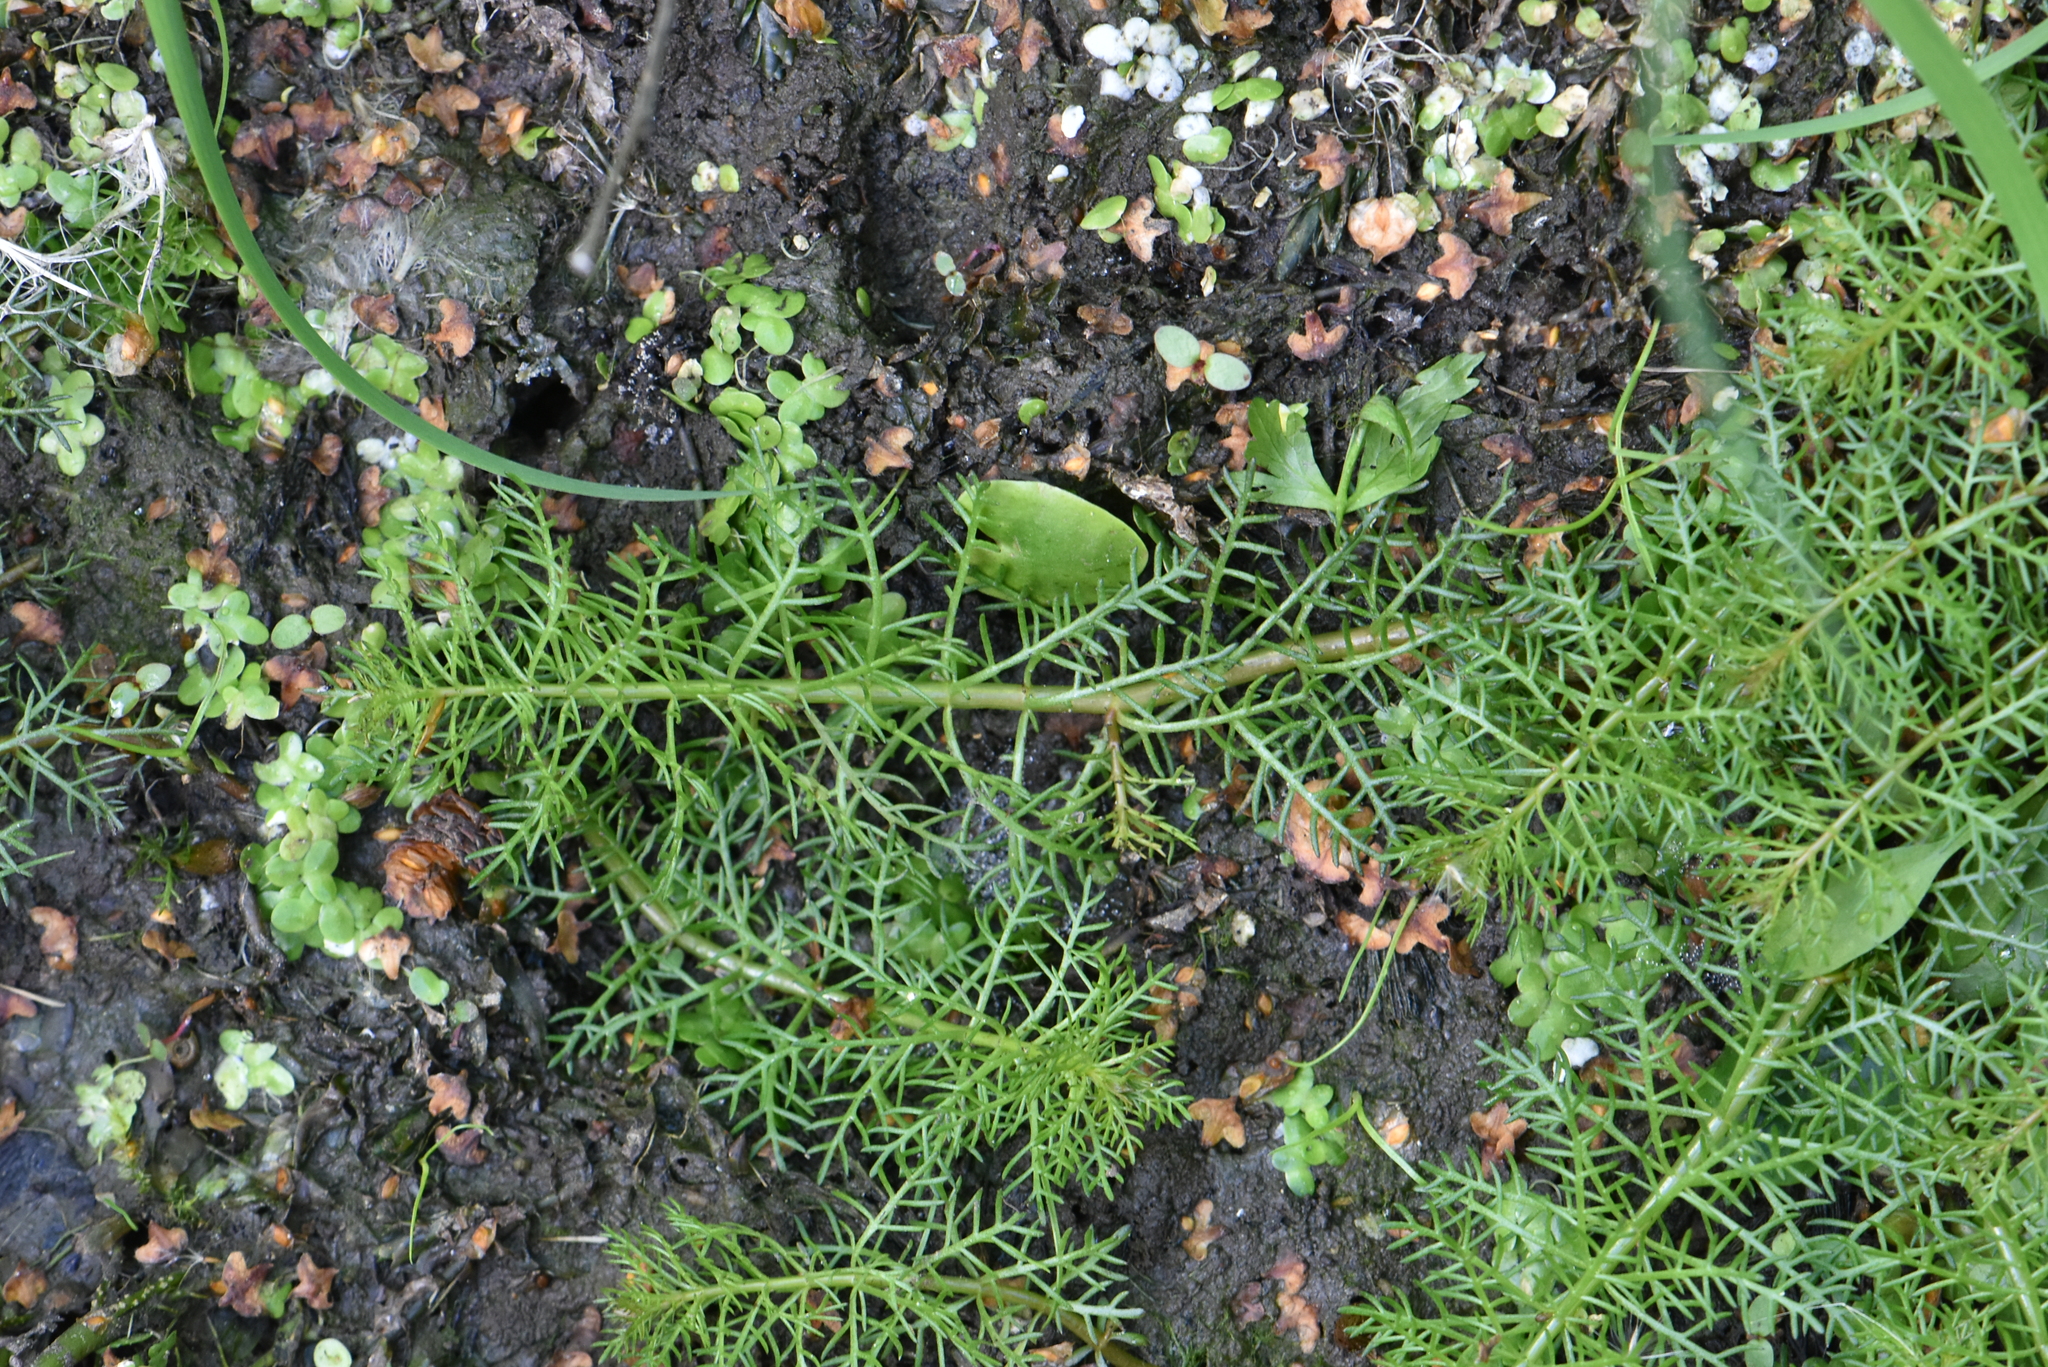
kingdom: Plantae
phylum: Tracheophyta
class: Magnoliopsida
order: Saxifragales
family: Haloragaceae
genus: Myriophyllum
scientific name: Myriophyllum verticillatum
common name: Whorled water-milfoil
